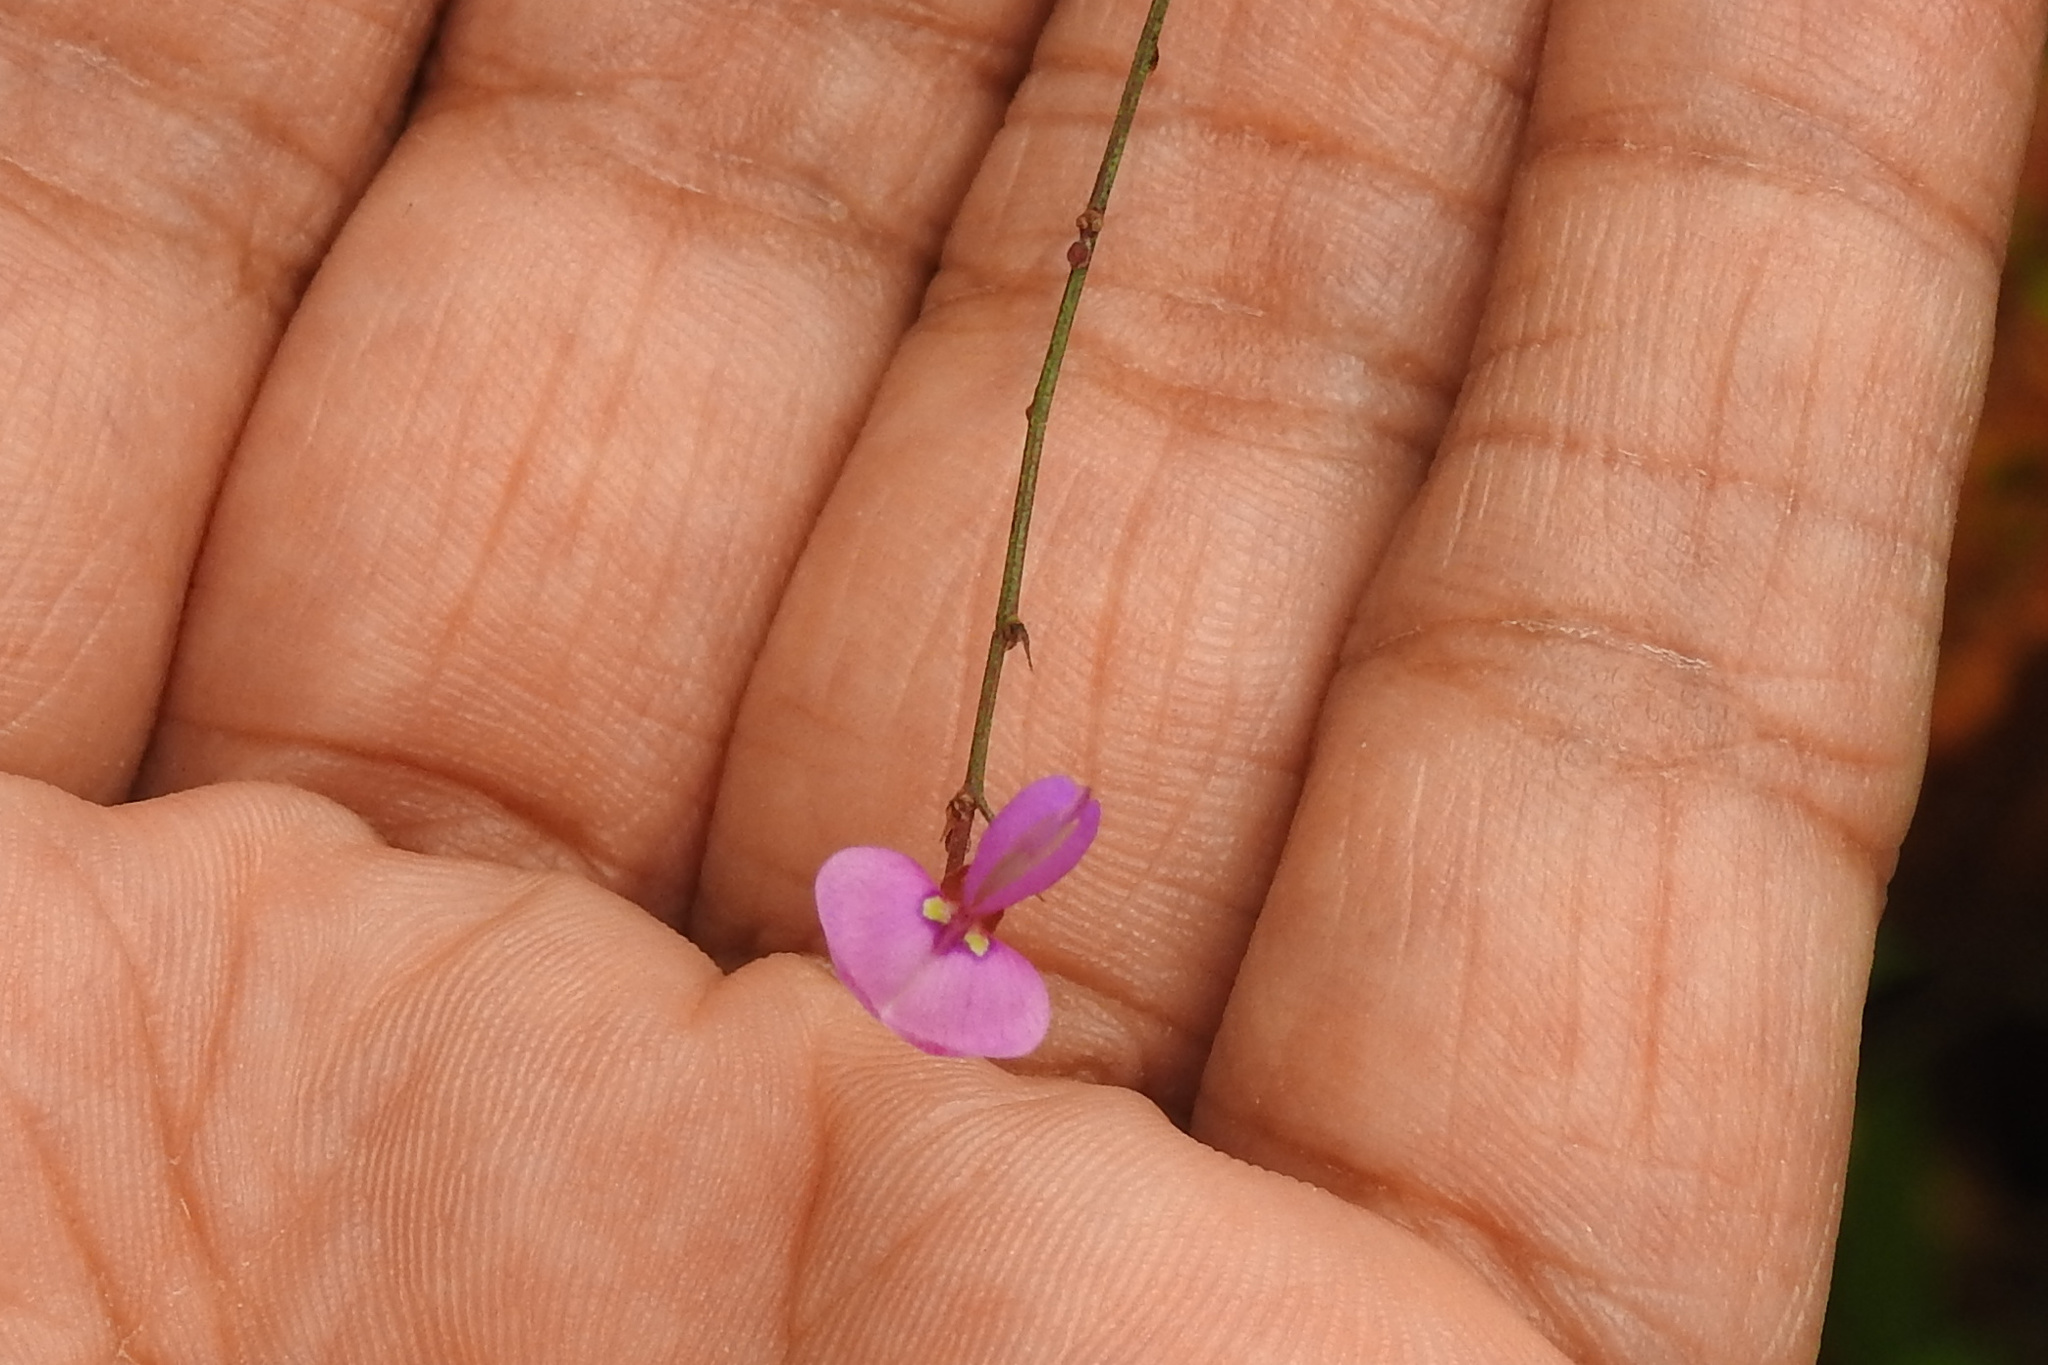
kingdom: Plantae
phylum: Tracheophyta
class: Magnoliopsida
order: Fabales
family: Fabaceae
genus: Desmodium
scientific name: Desmodium paniculatum
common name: Panicled tick-clover
